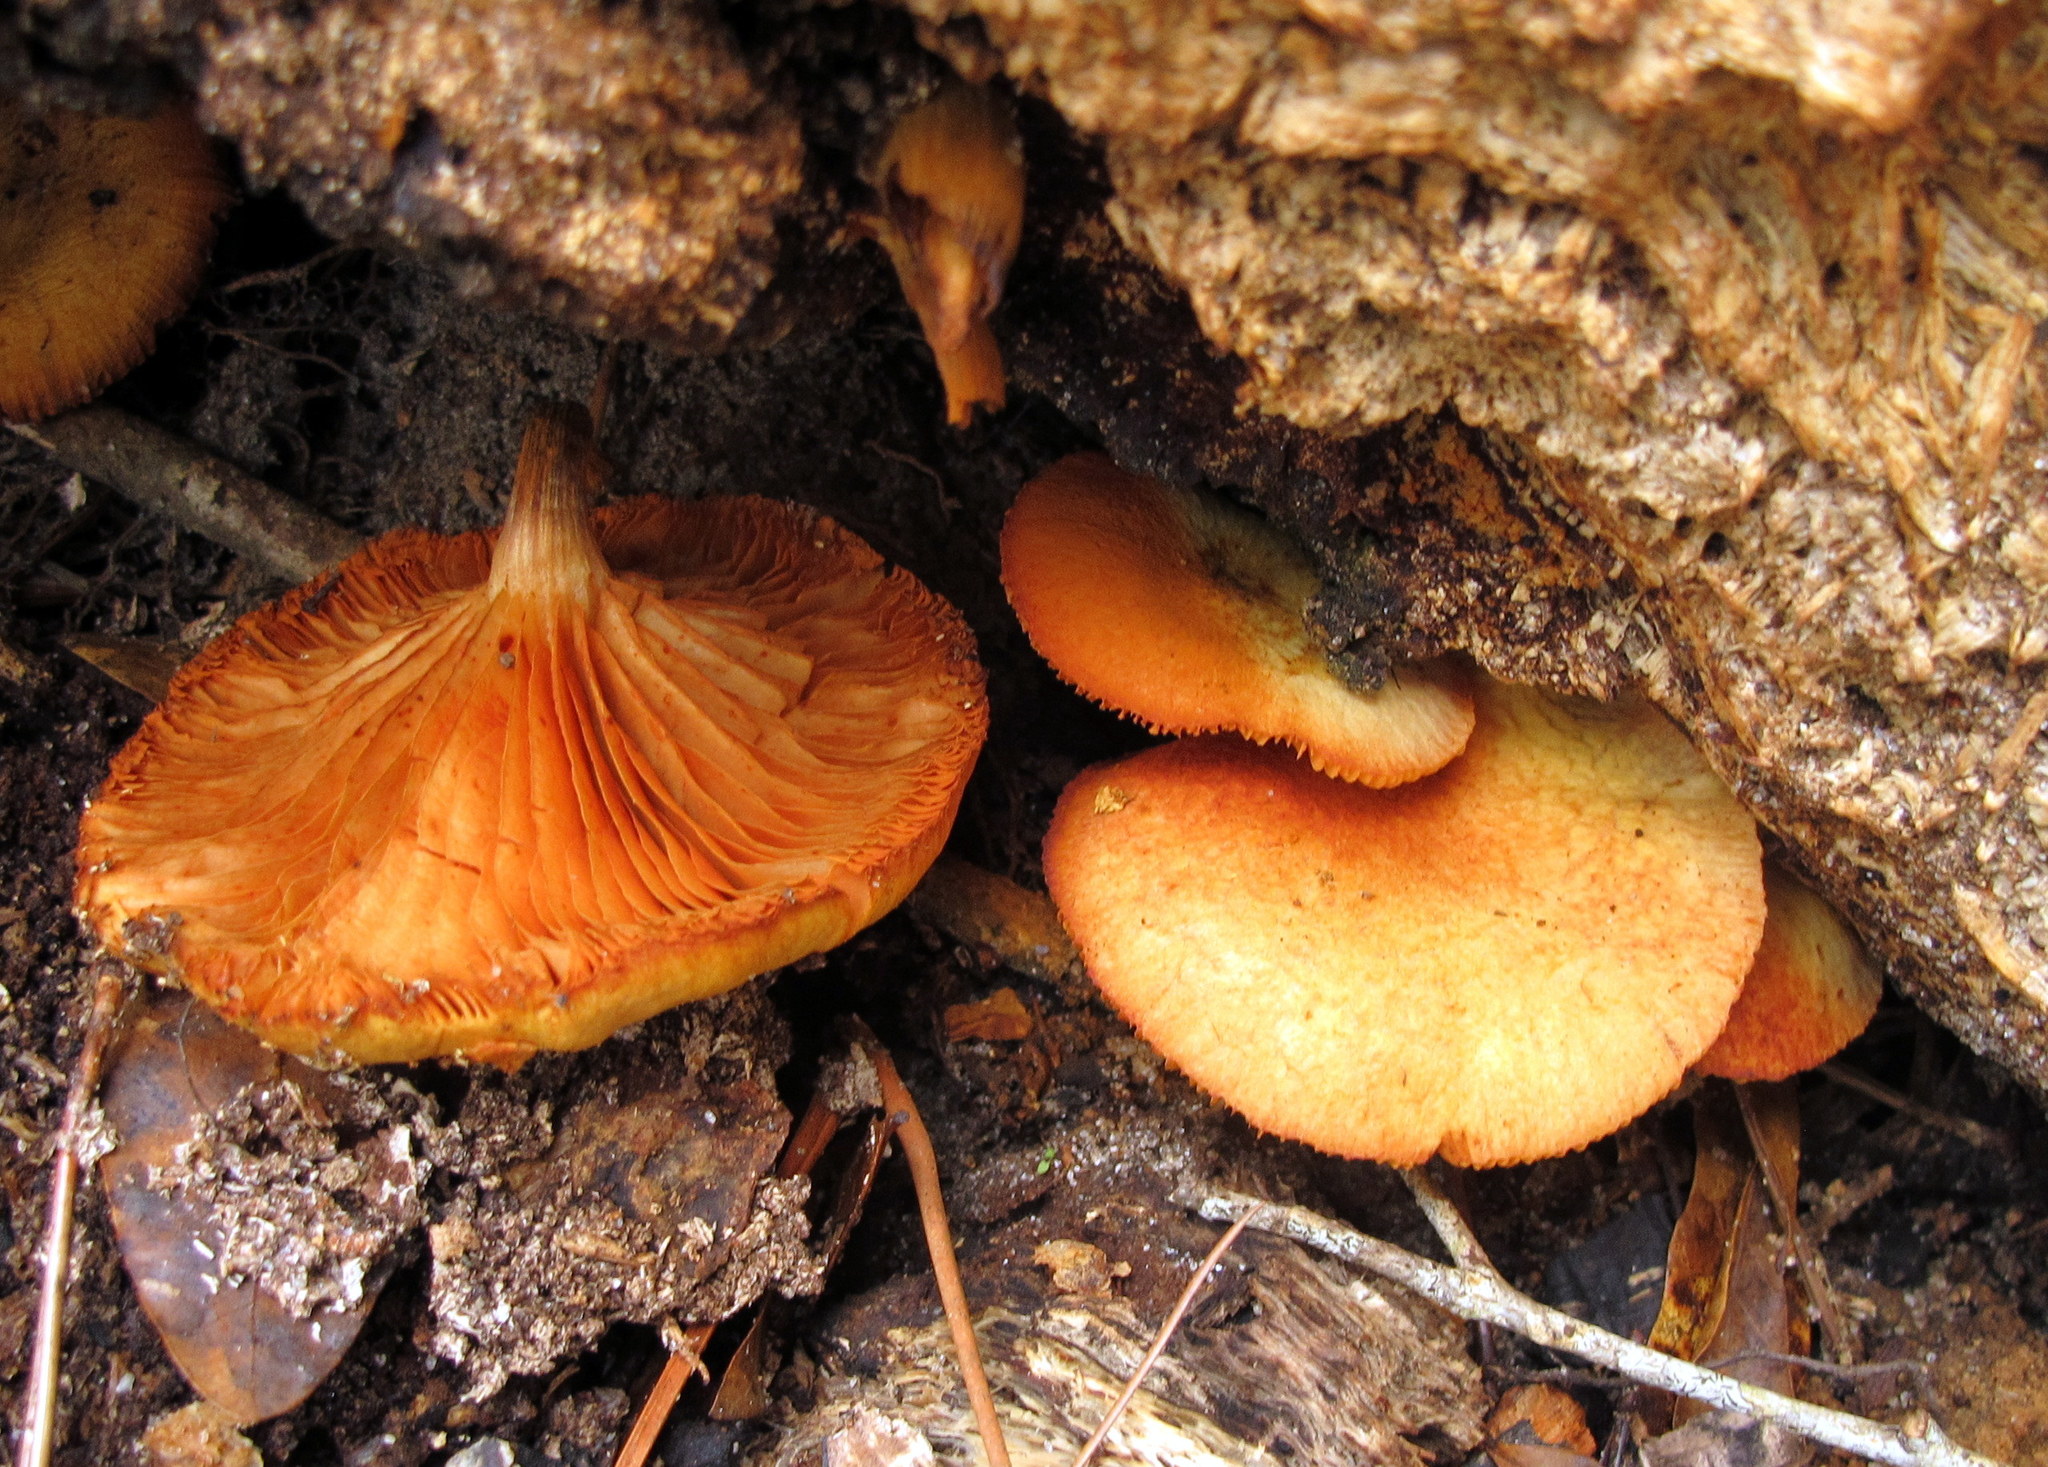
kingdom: Fungi
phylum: Basidiomycota
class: Agaricomycetes
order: Agaricales
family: Hymenogastraceae
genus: Gymnopilus
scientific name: Gymnopilus sapineus
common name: Scaly rustgill
